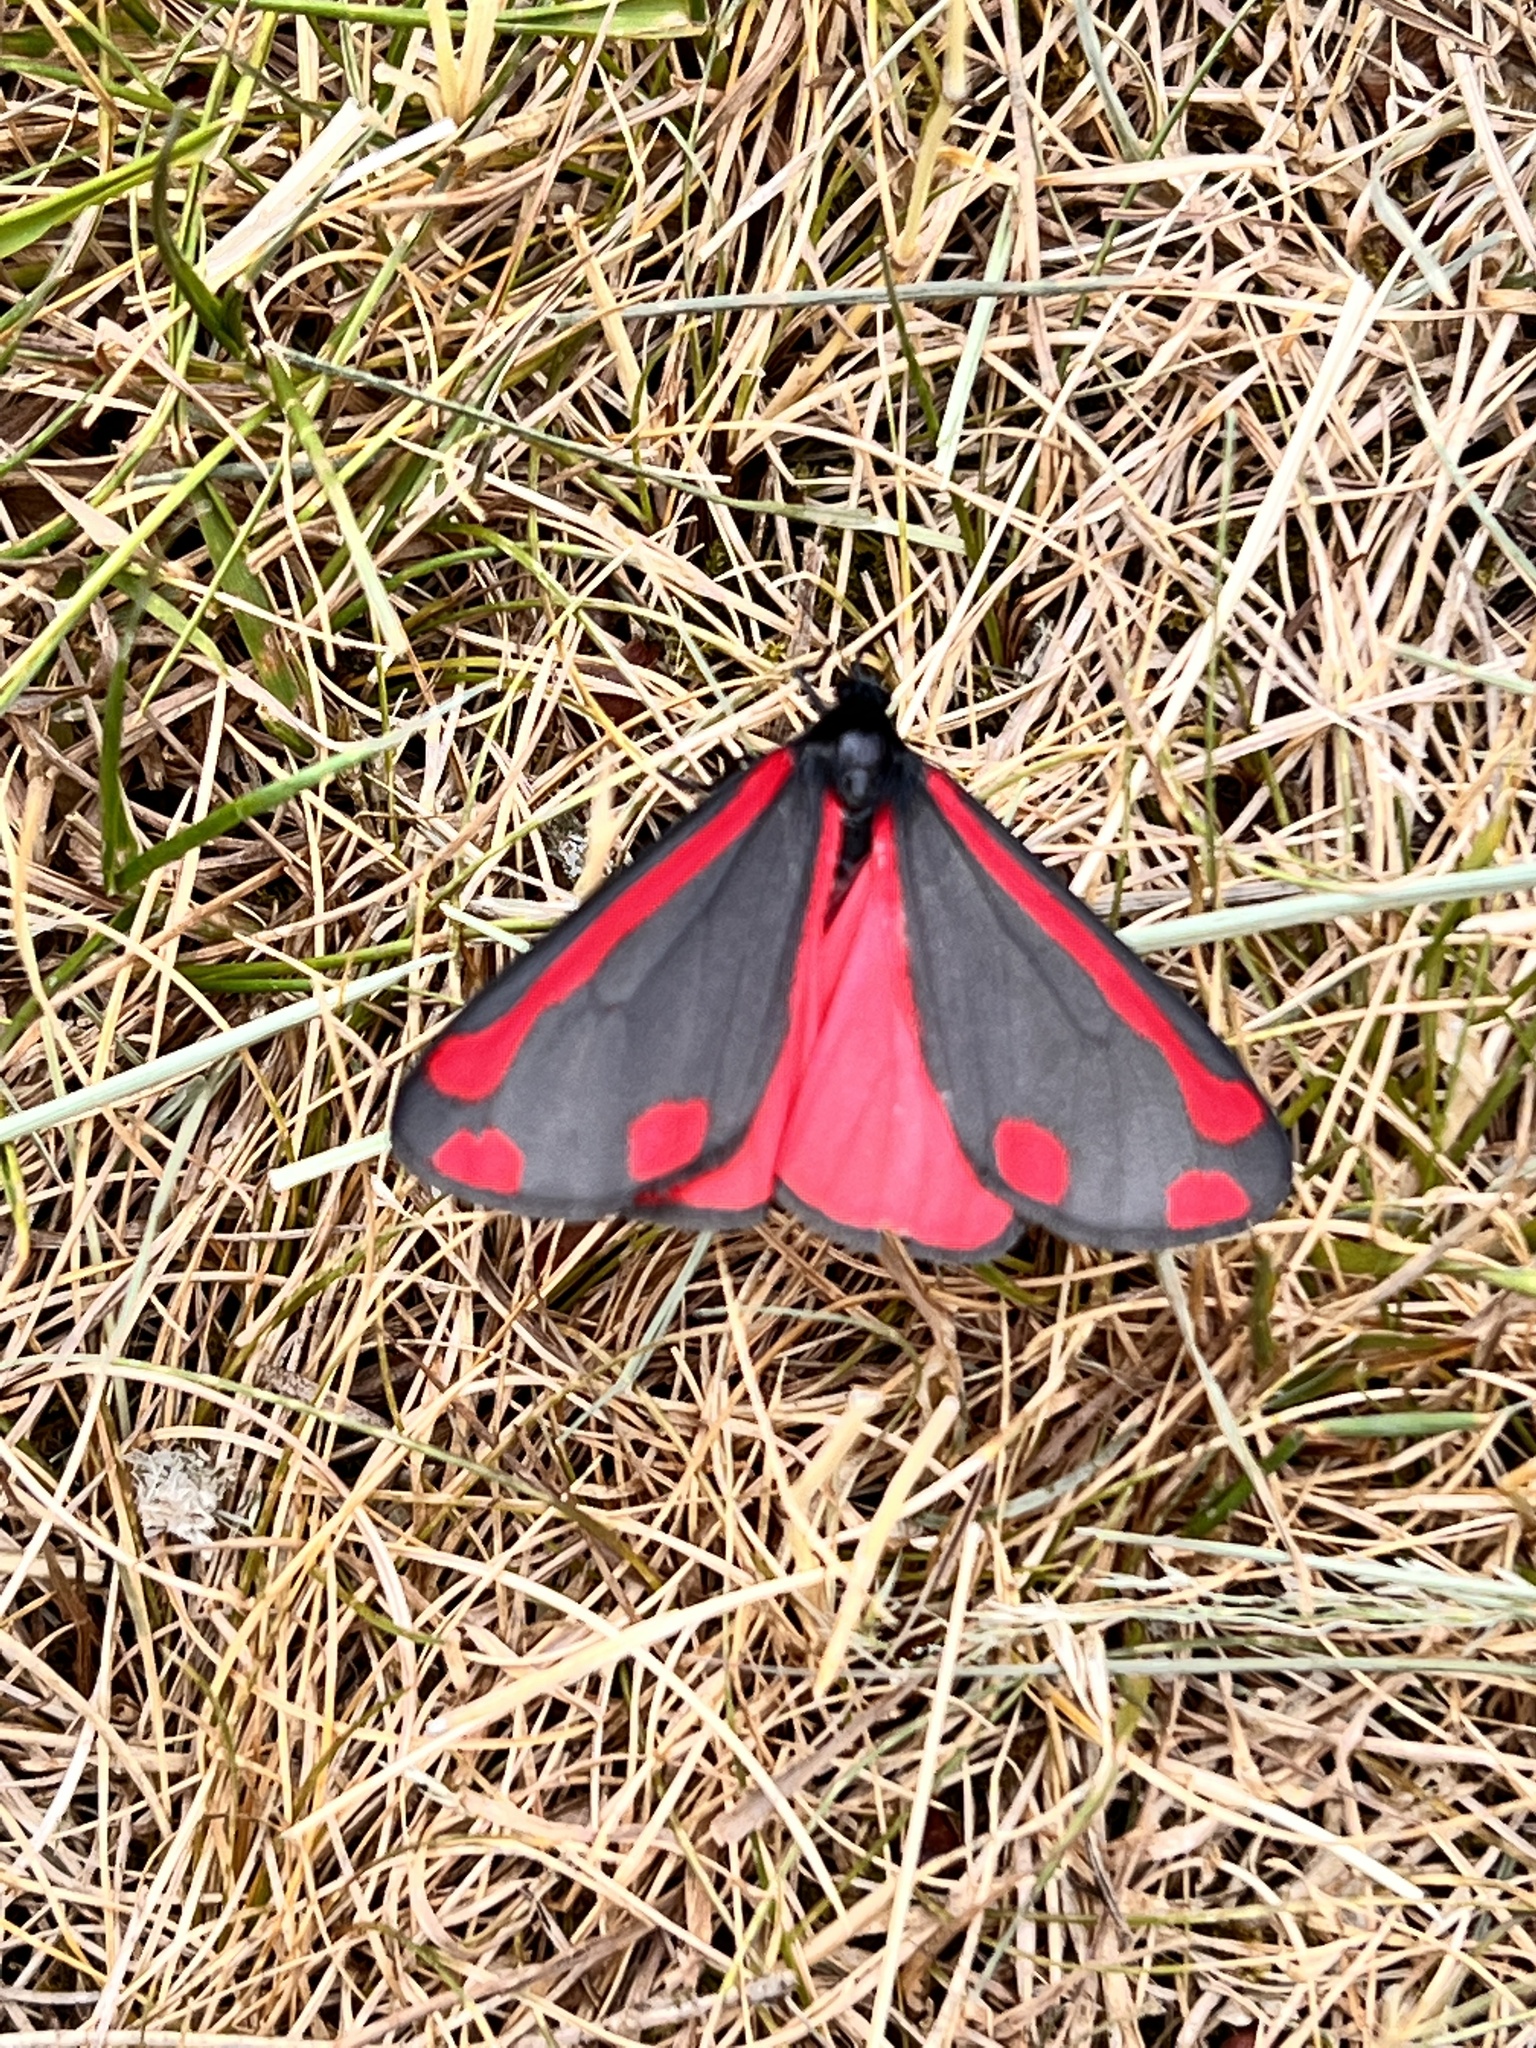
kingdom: Animalia
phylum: Arthropoda
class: Insecta
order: Lepidoptera
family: Erebidae
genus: Tyria
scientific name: Tyria jacobaeae
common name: Cinnabar
